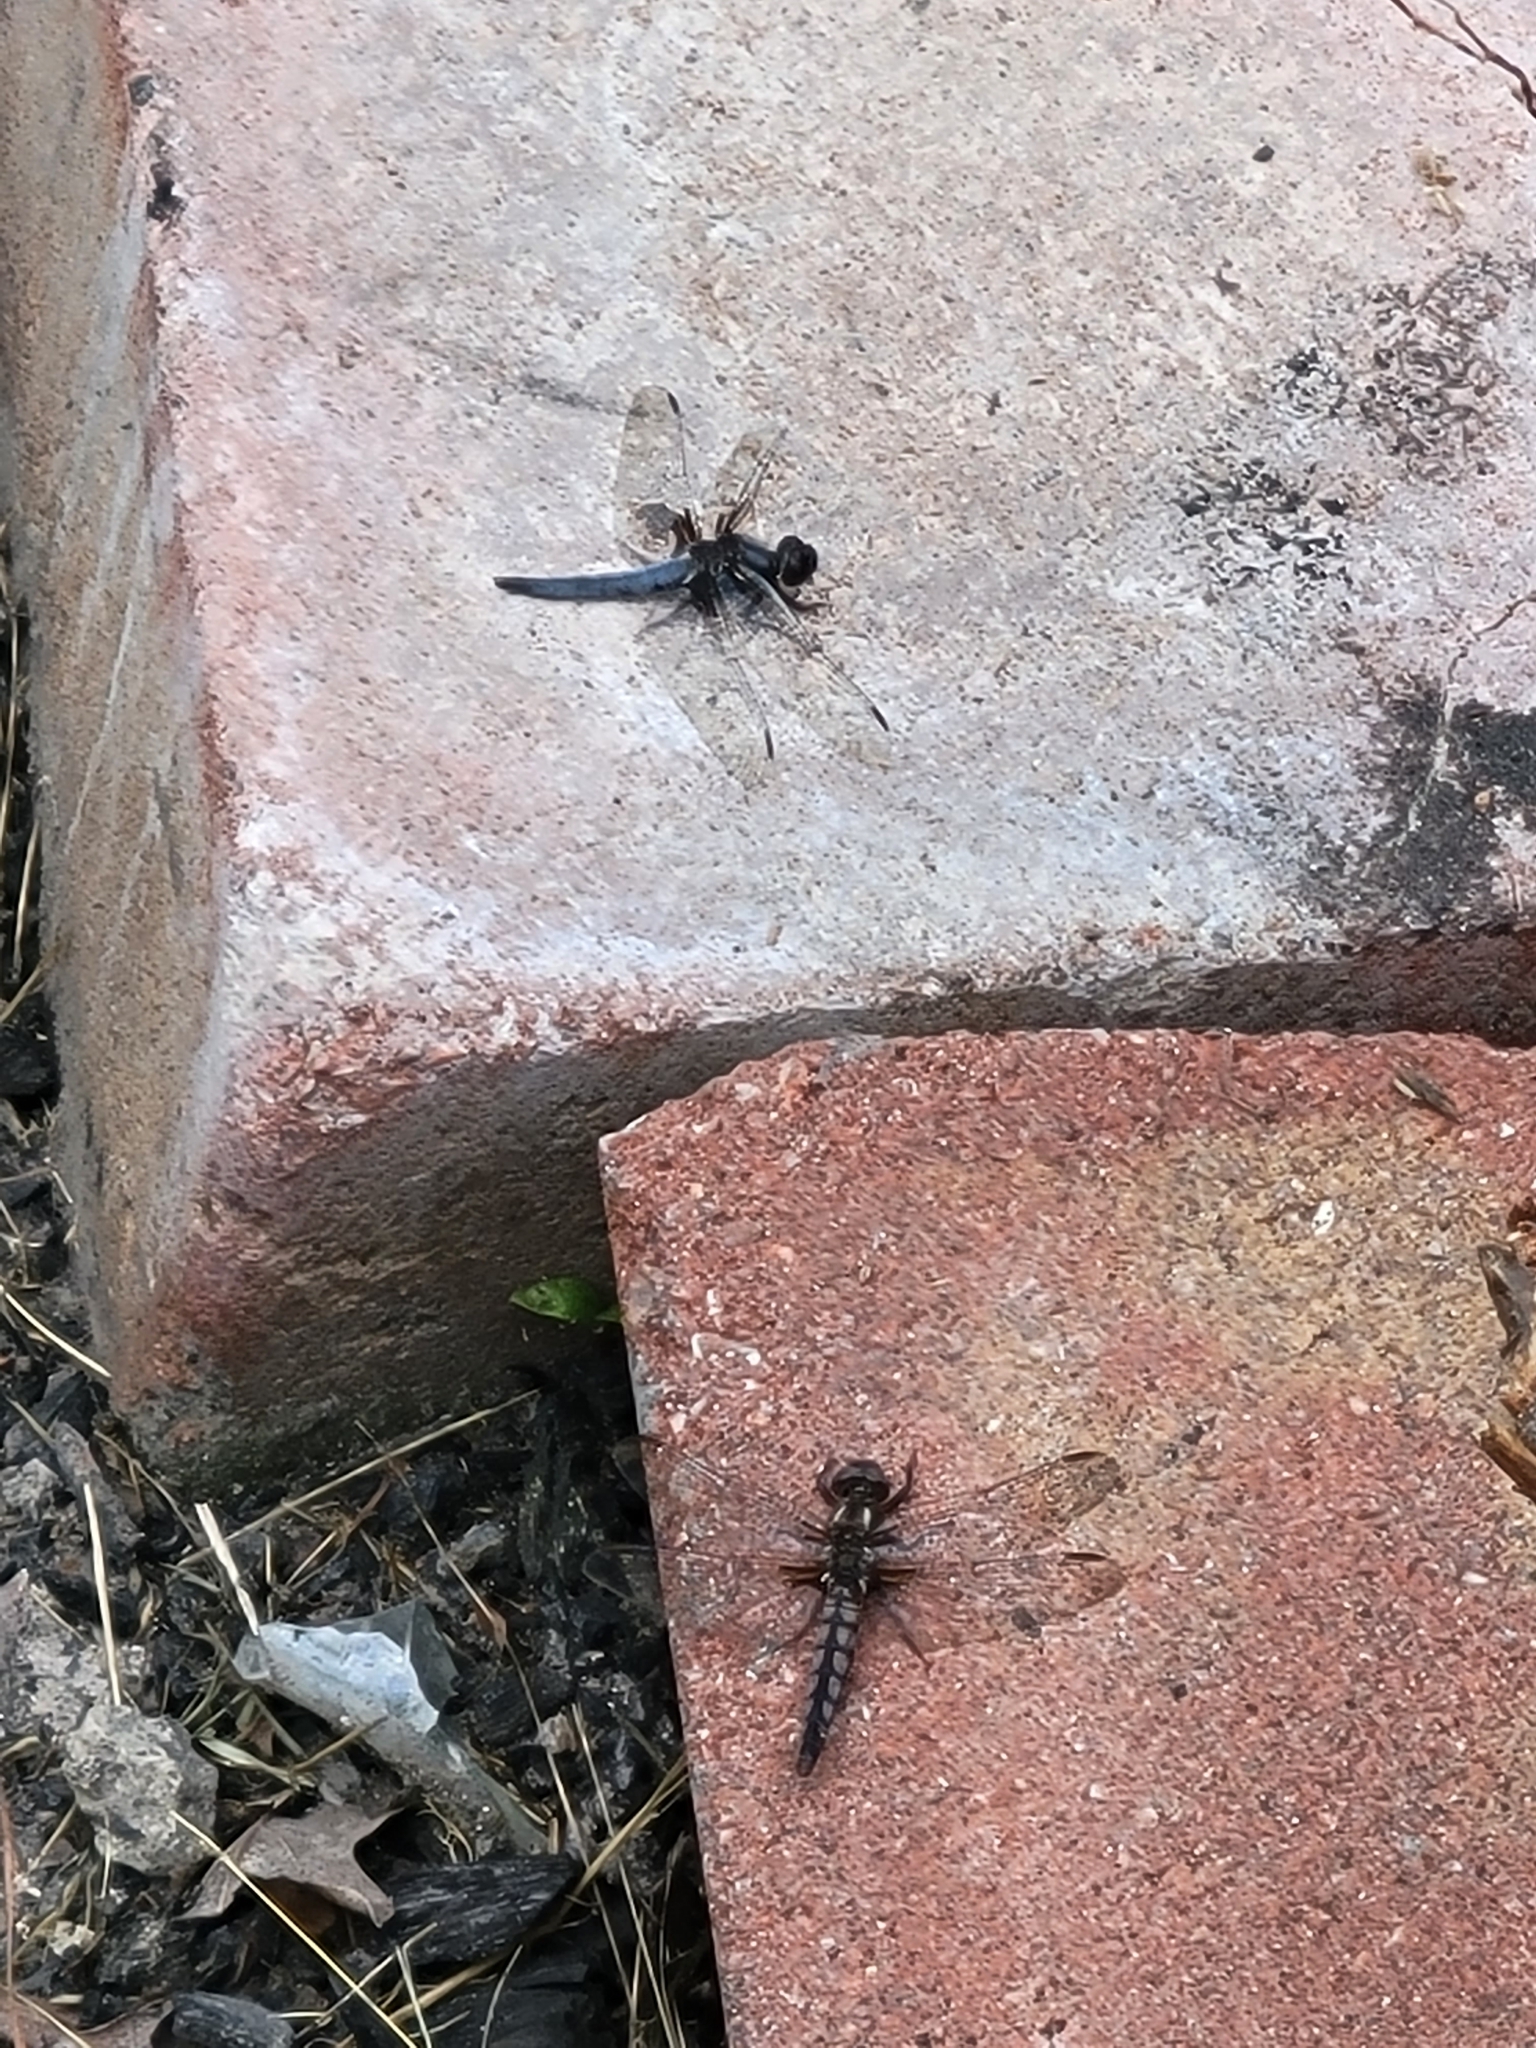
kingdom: Animalia
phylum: Arthropoda
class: Insecta
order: Odonata
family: Libellulidae
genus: Ladona
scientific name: Ladona deplanata
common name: Blue corporal
